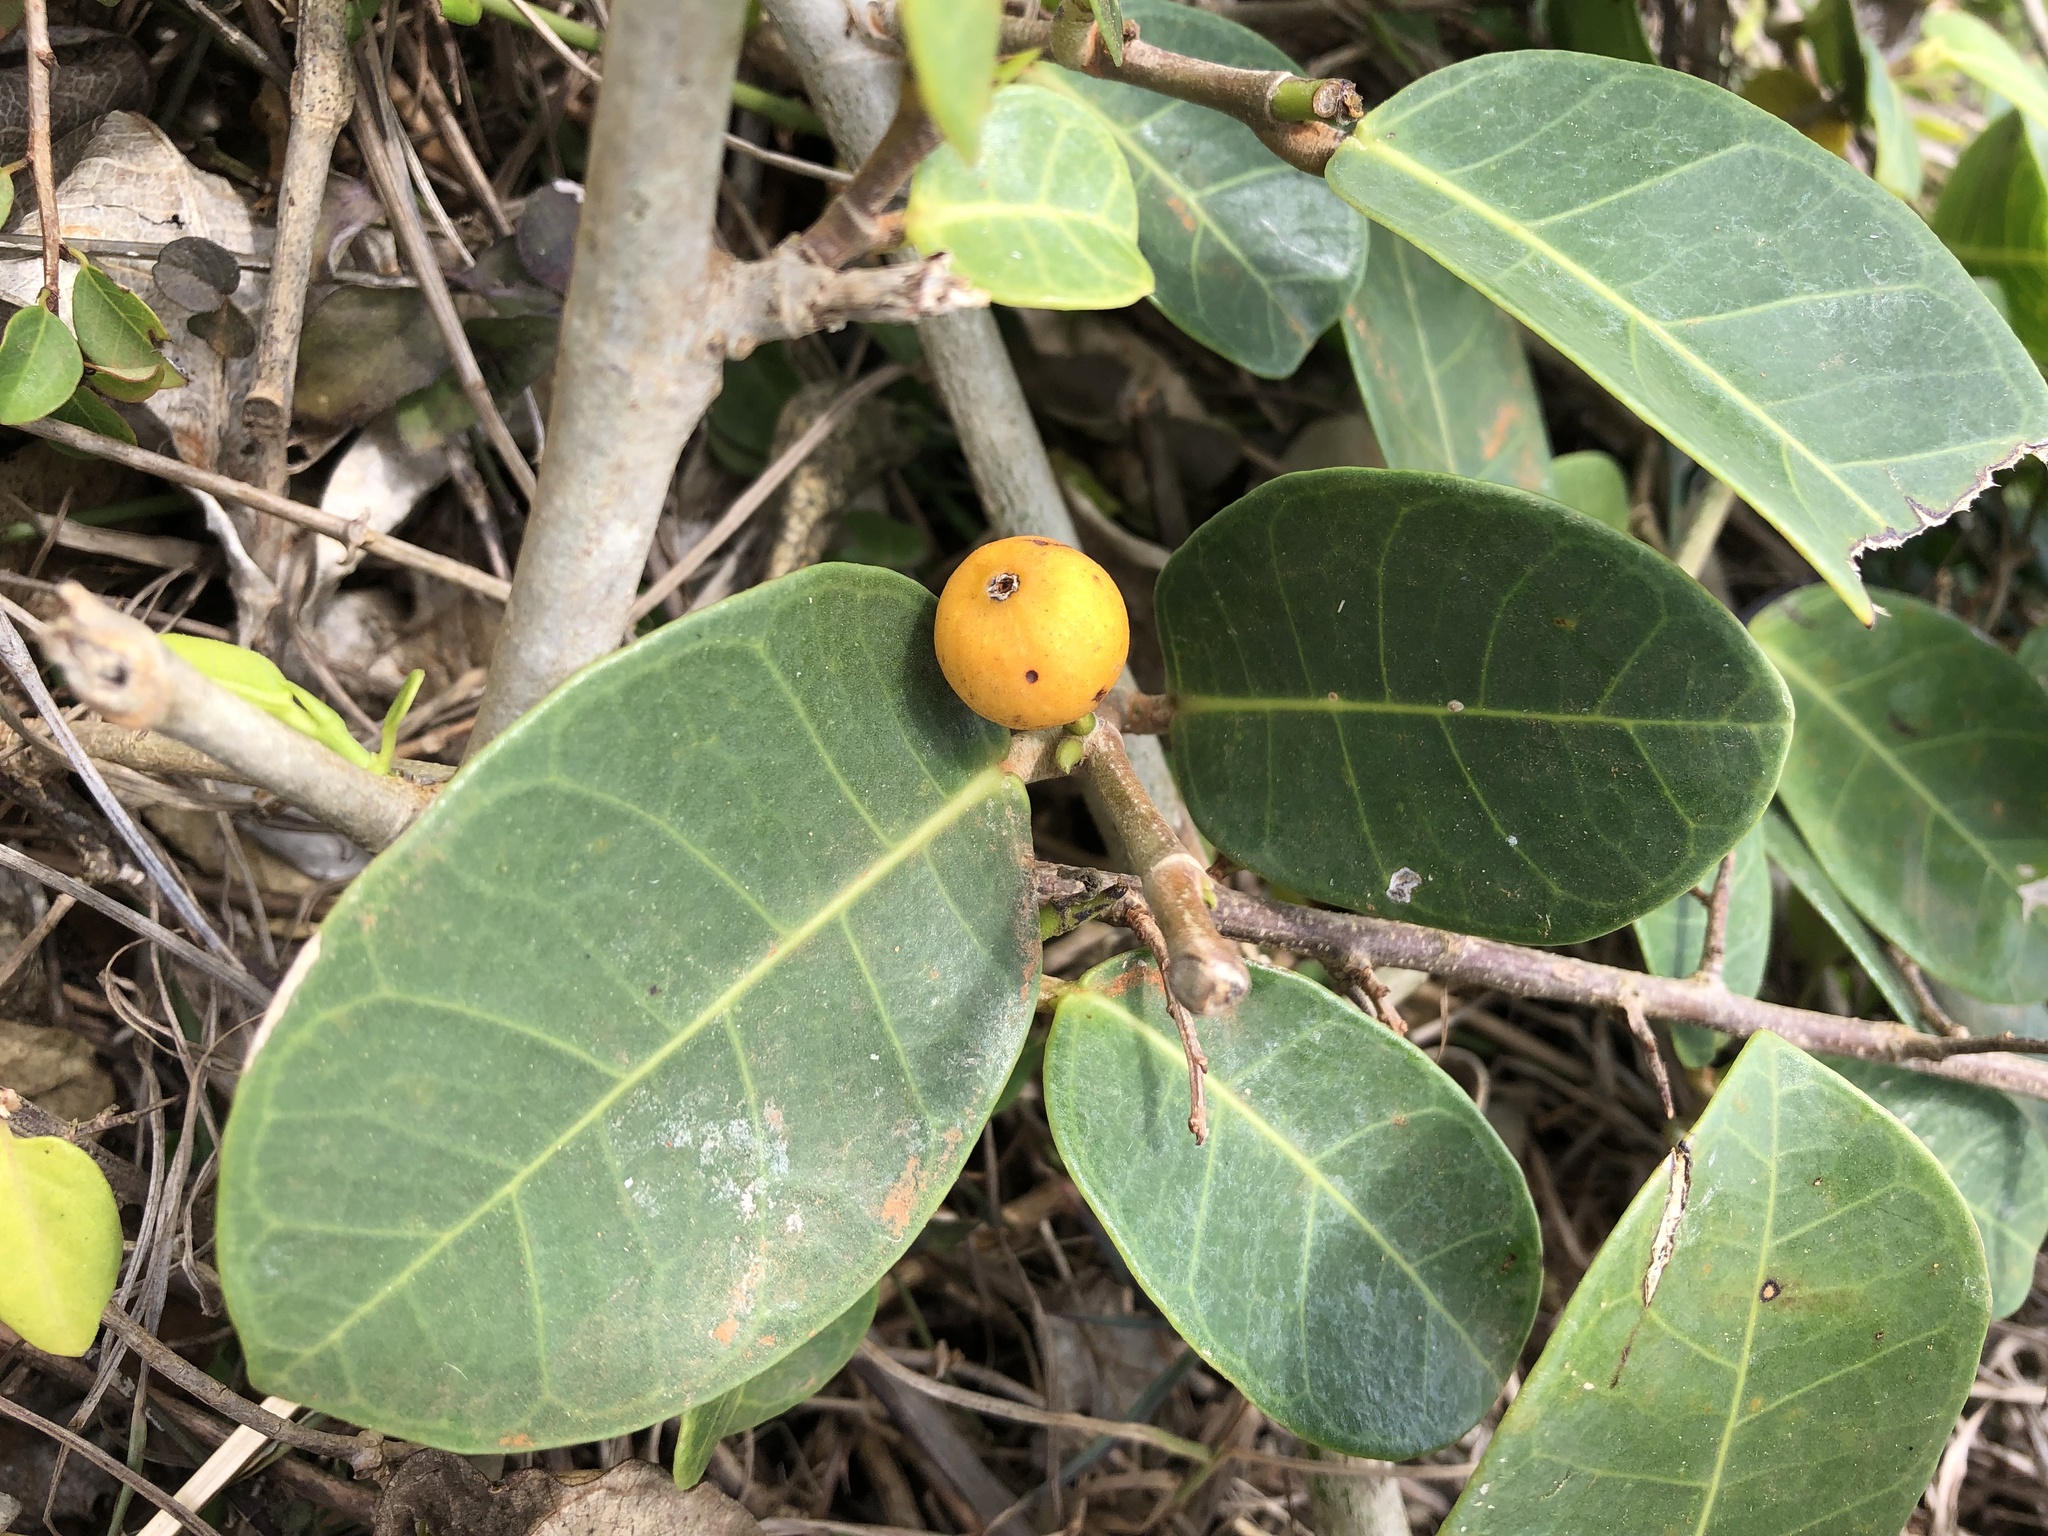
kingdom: Plantae
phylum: Tracheophyta
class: Magnoliopsida
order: Rosales
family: Moraceae
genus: Ficus
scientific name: Ficus tinctoria
